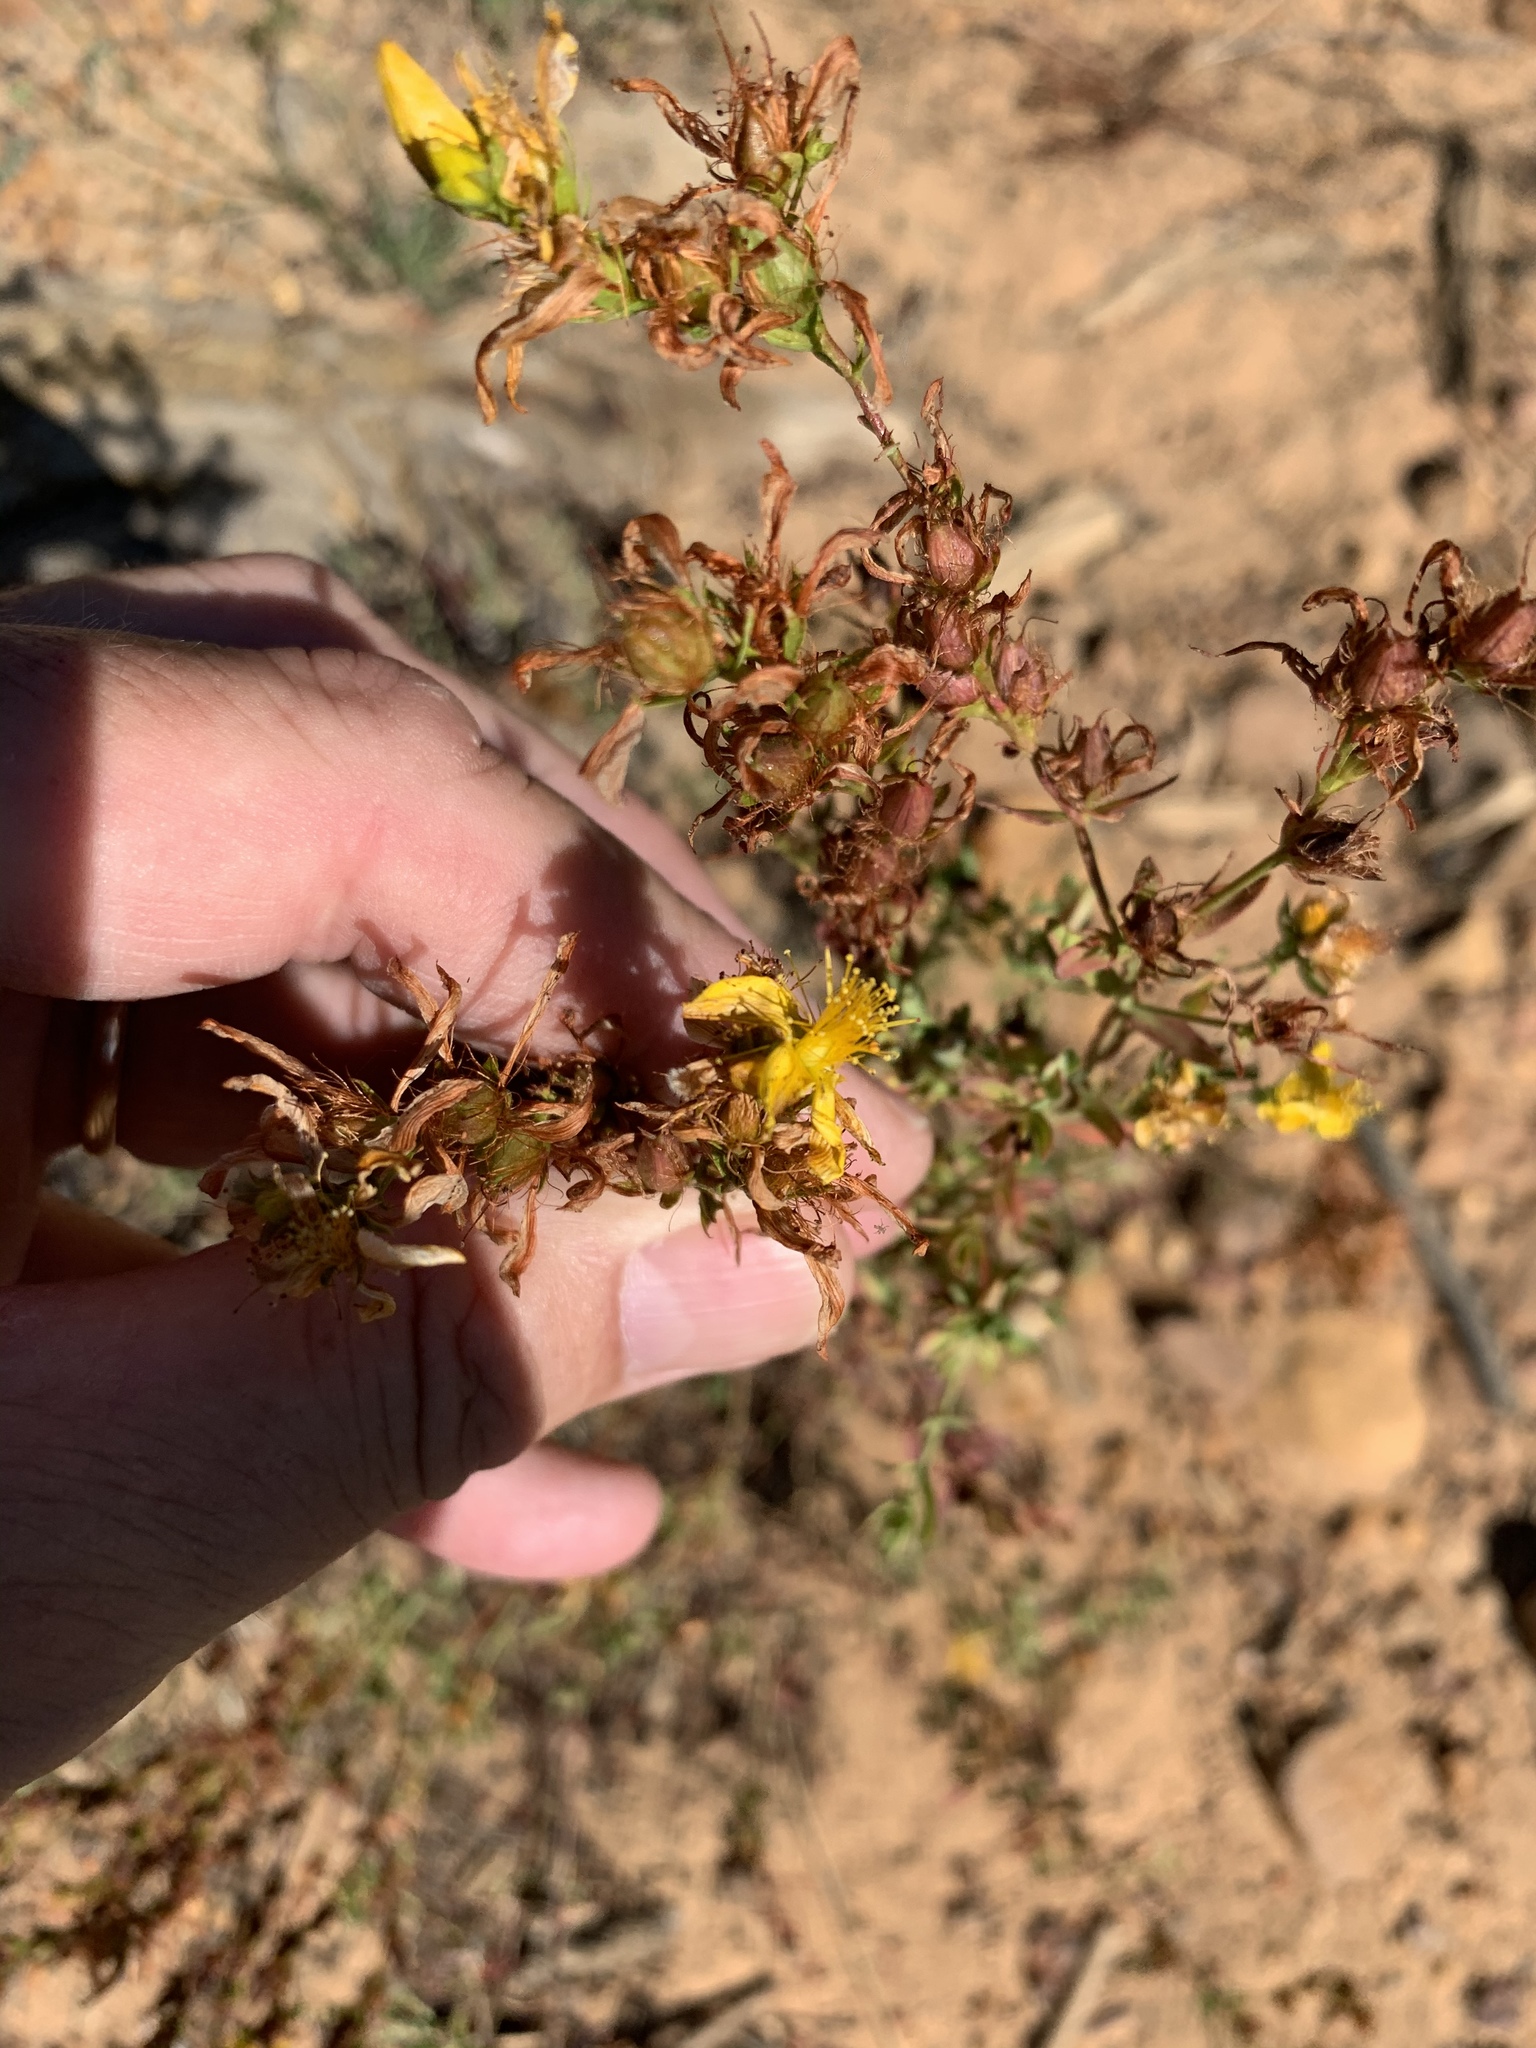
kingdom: Plantae
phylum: Tracheophyta
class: Magnoliopsida
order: Malpighiales
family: Hypericaceae
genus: Hypericum
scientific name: Hypericum perforatum
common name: Common st. johnswort
